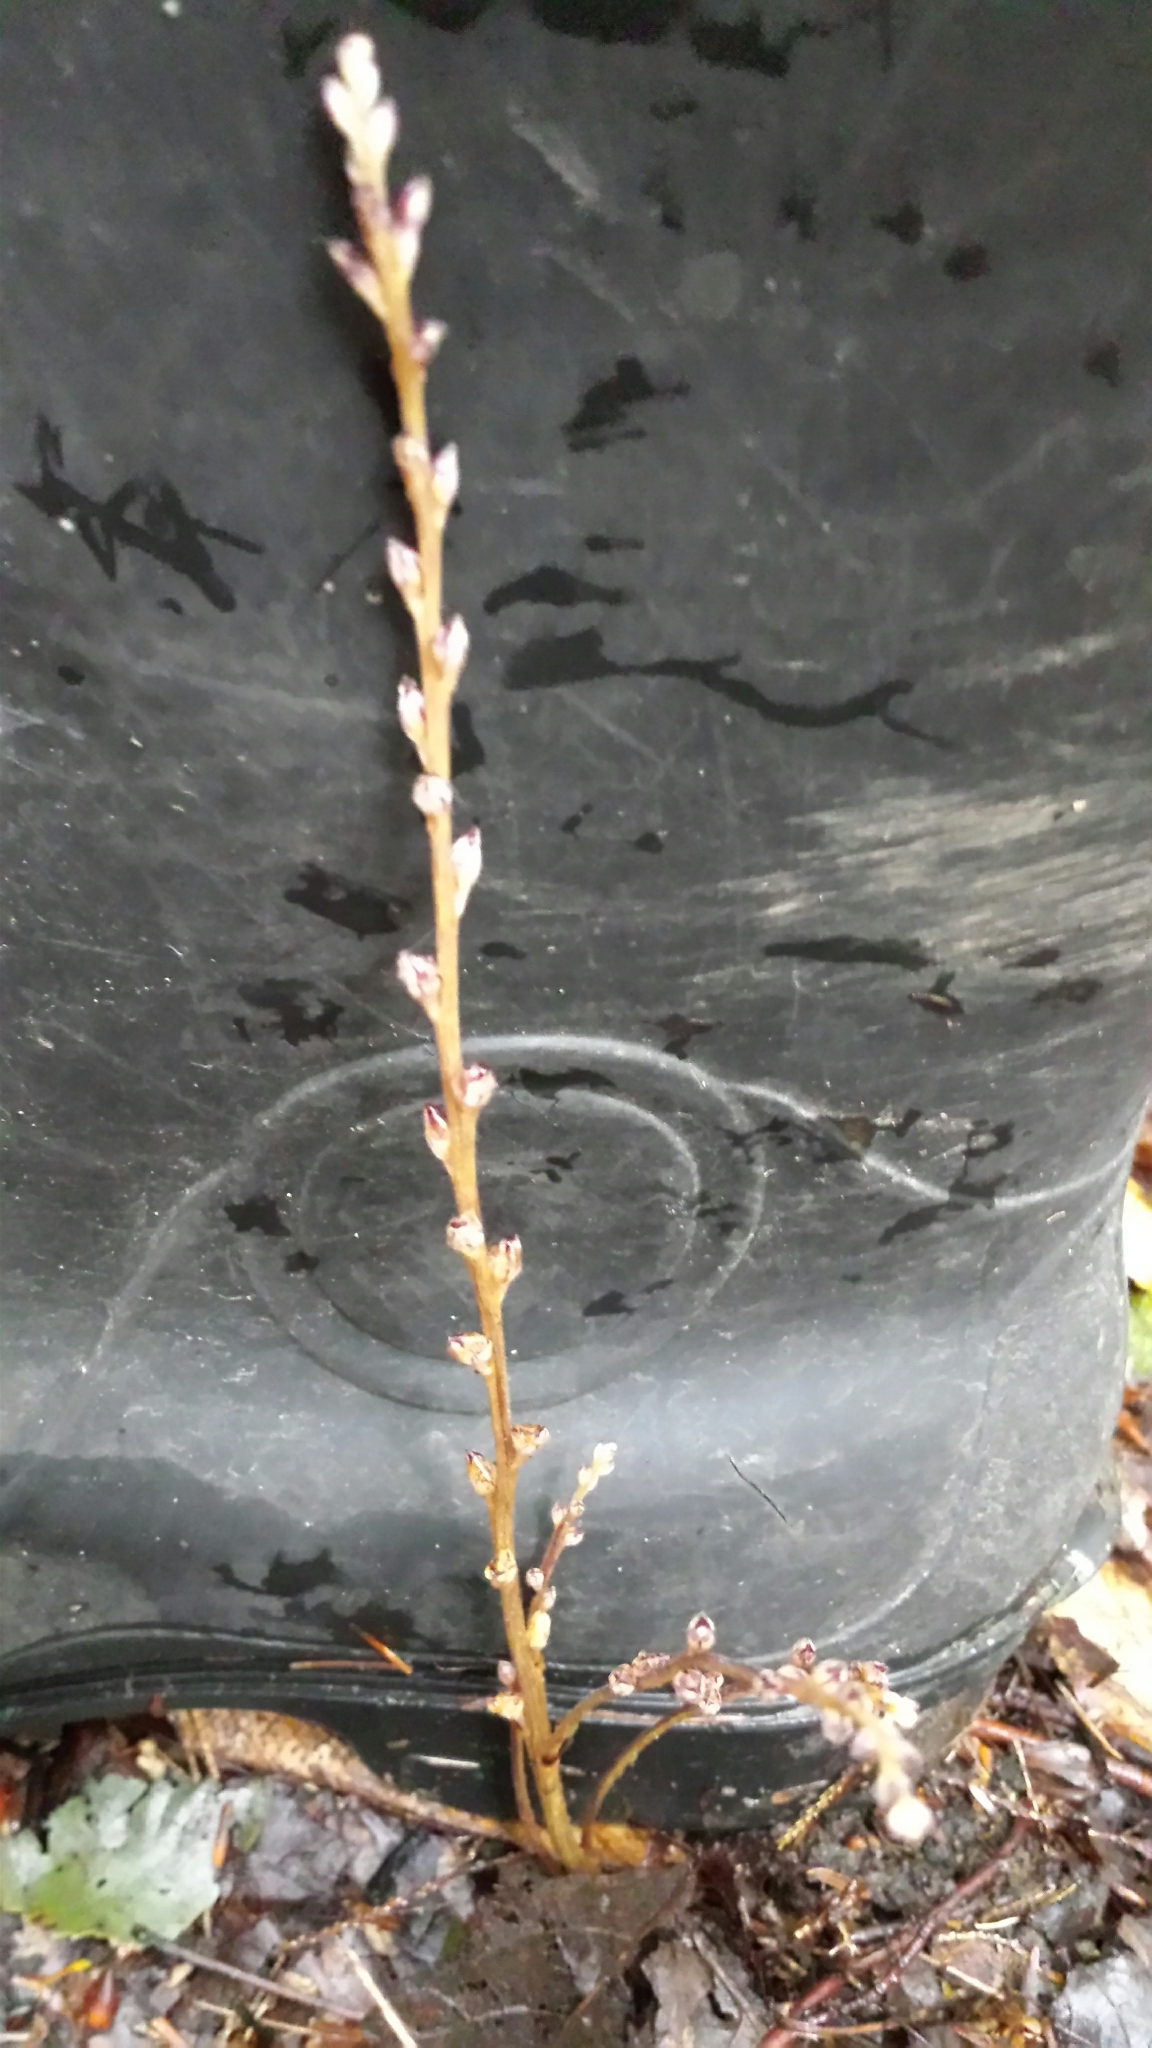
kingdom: Plantae
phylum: Tracheophyta
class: Magnoliopsida
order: Lamiales
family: Orobanchaceae
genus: Epifagus
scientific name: Epifagus virginiana
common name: Beechdrops
